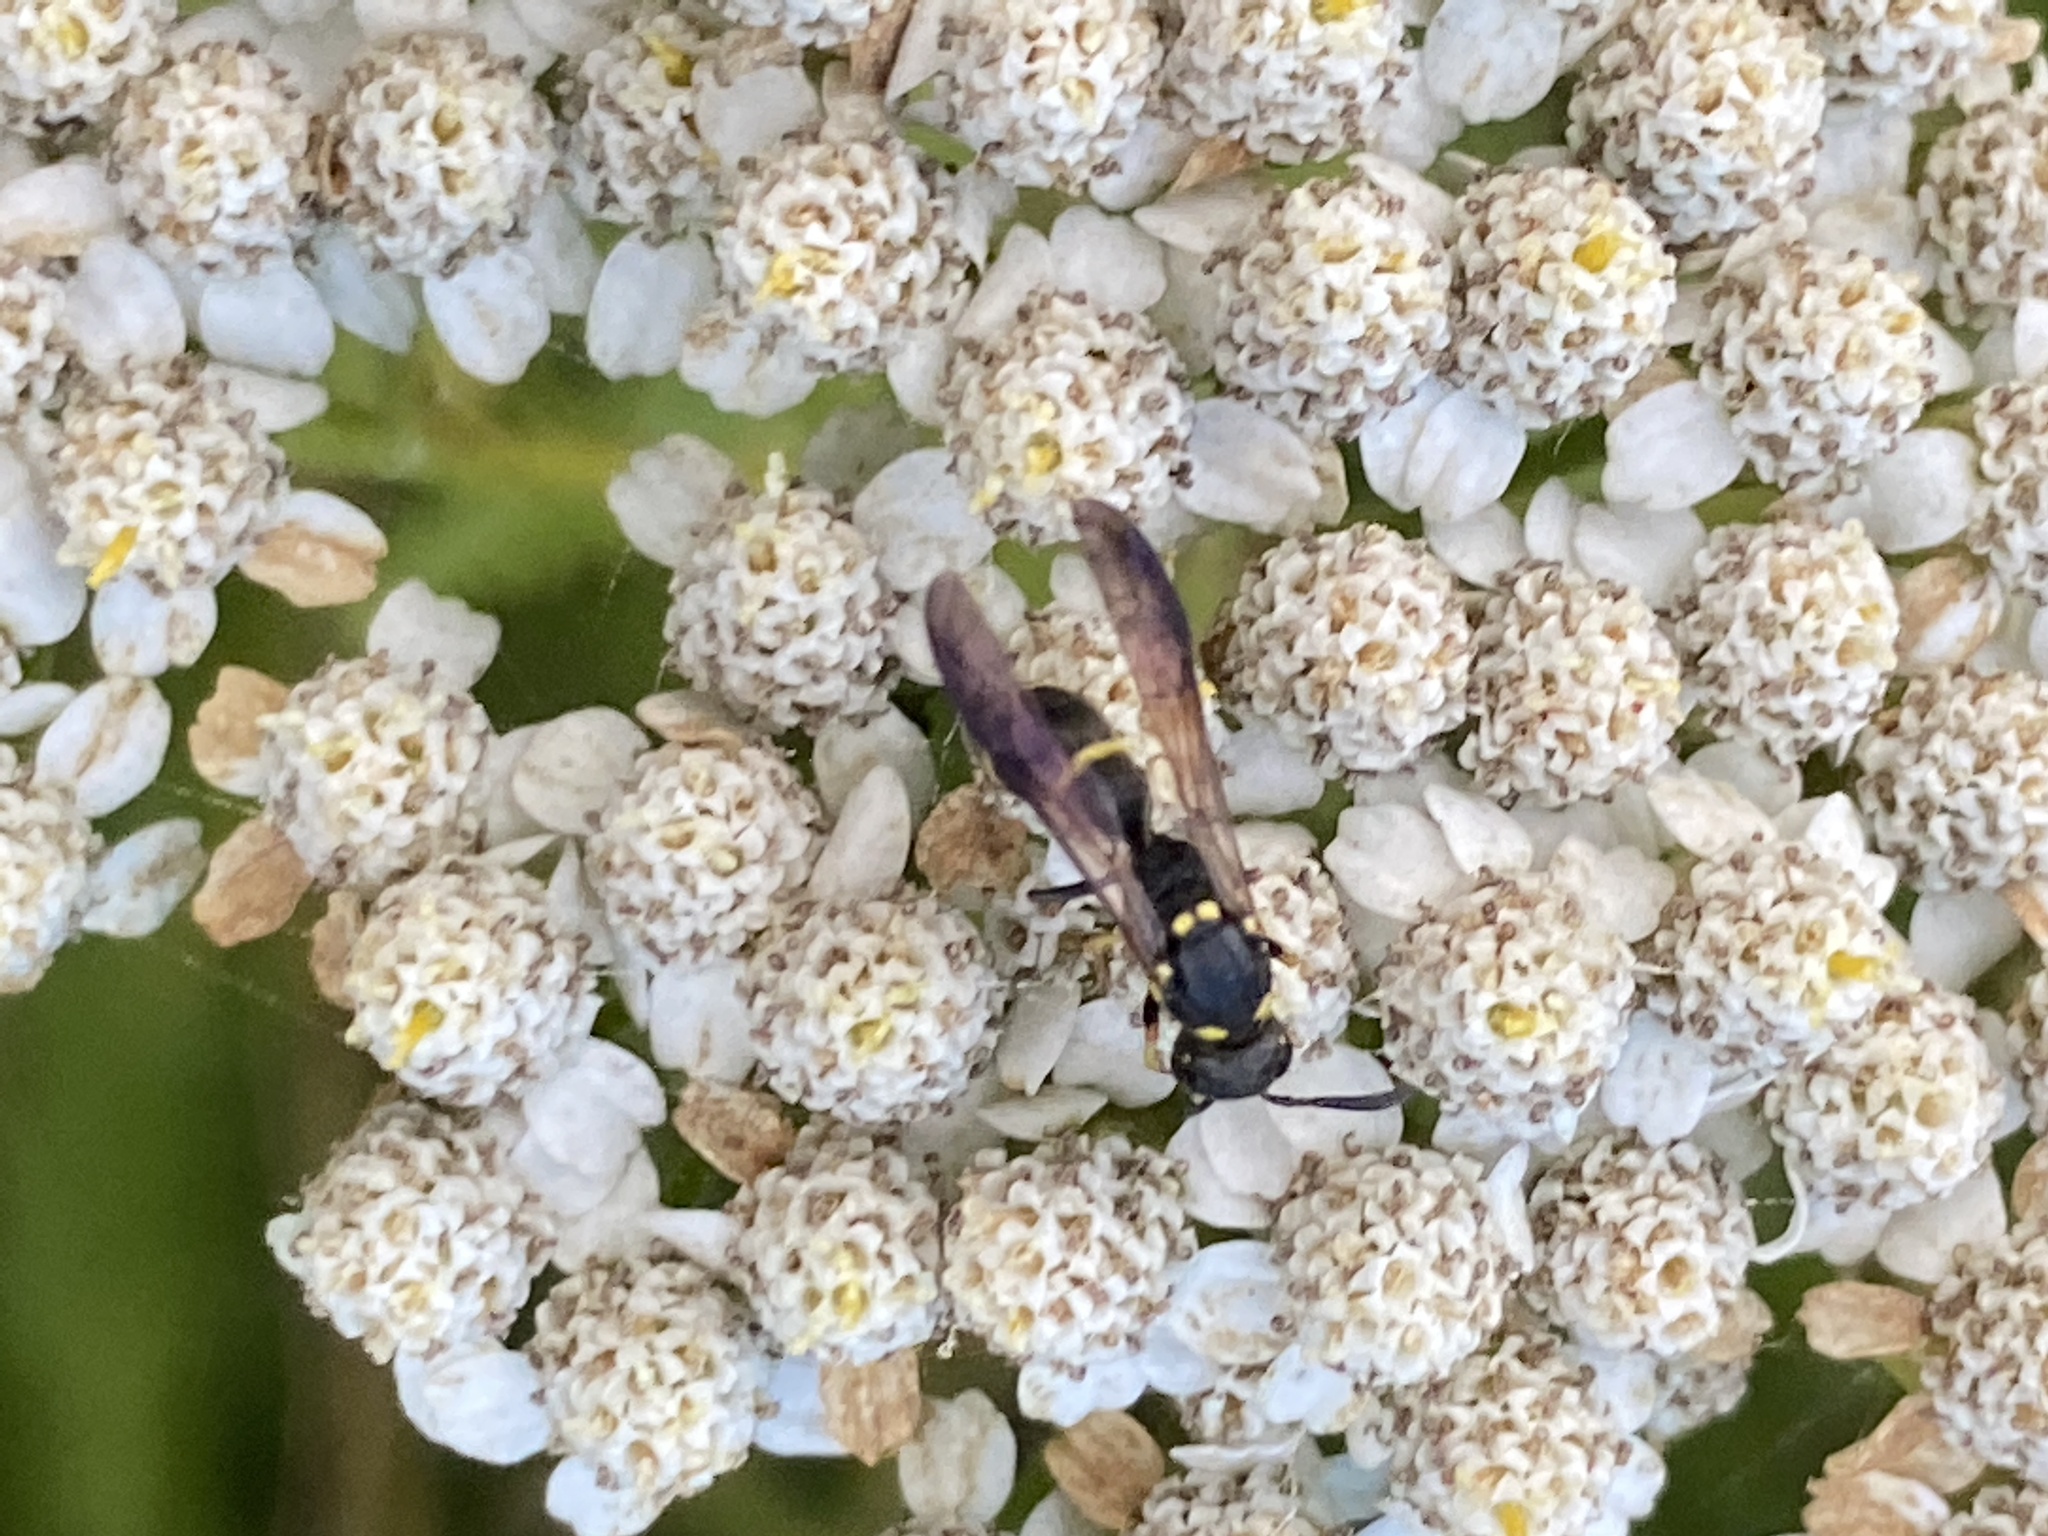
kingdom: Animalia
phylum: Arthropoda
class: Insecta
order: Hymenoptera
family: Eumenidae
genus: Symmorphus
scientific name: Symmorphus
